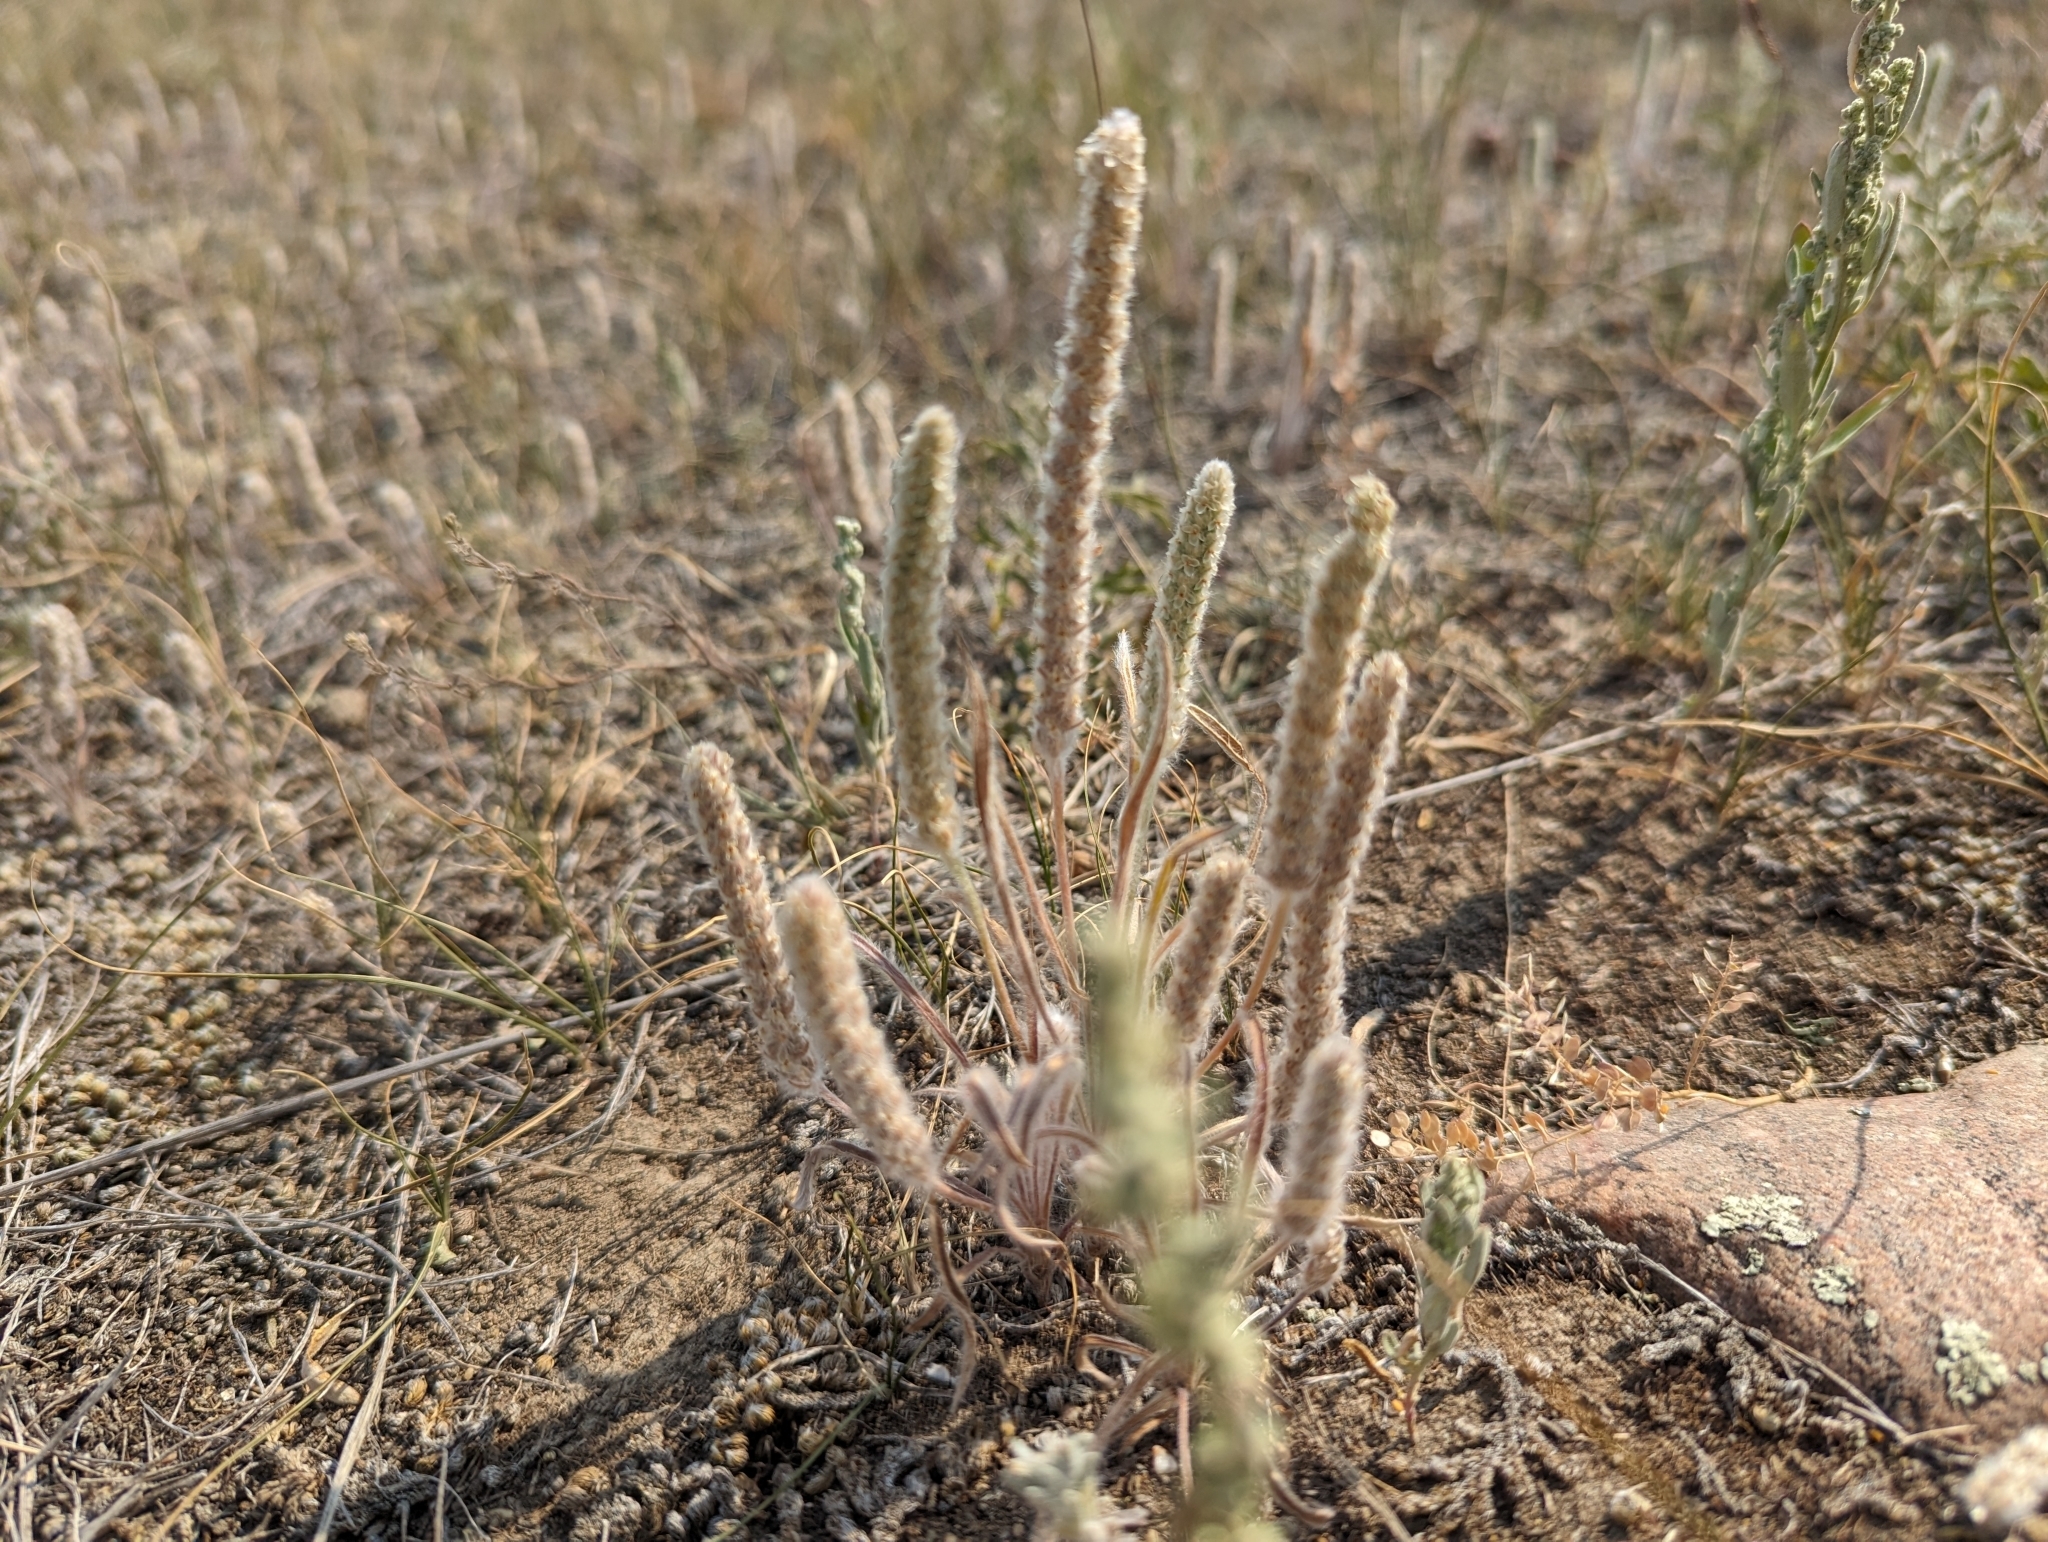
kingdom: Plantae
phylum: Tracheophyta
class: Magnoliopsida
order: Lamiales
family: Plantaginaceae
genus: Plantago
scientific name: Plantago patagonica
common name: Patagonia indian-wheat
